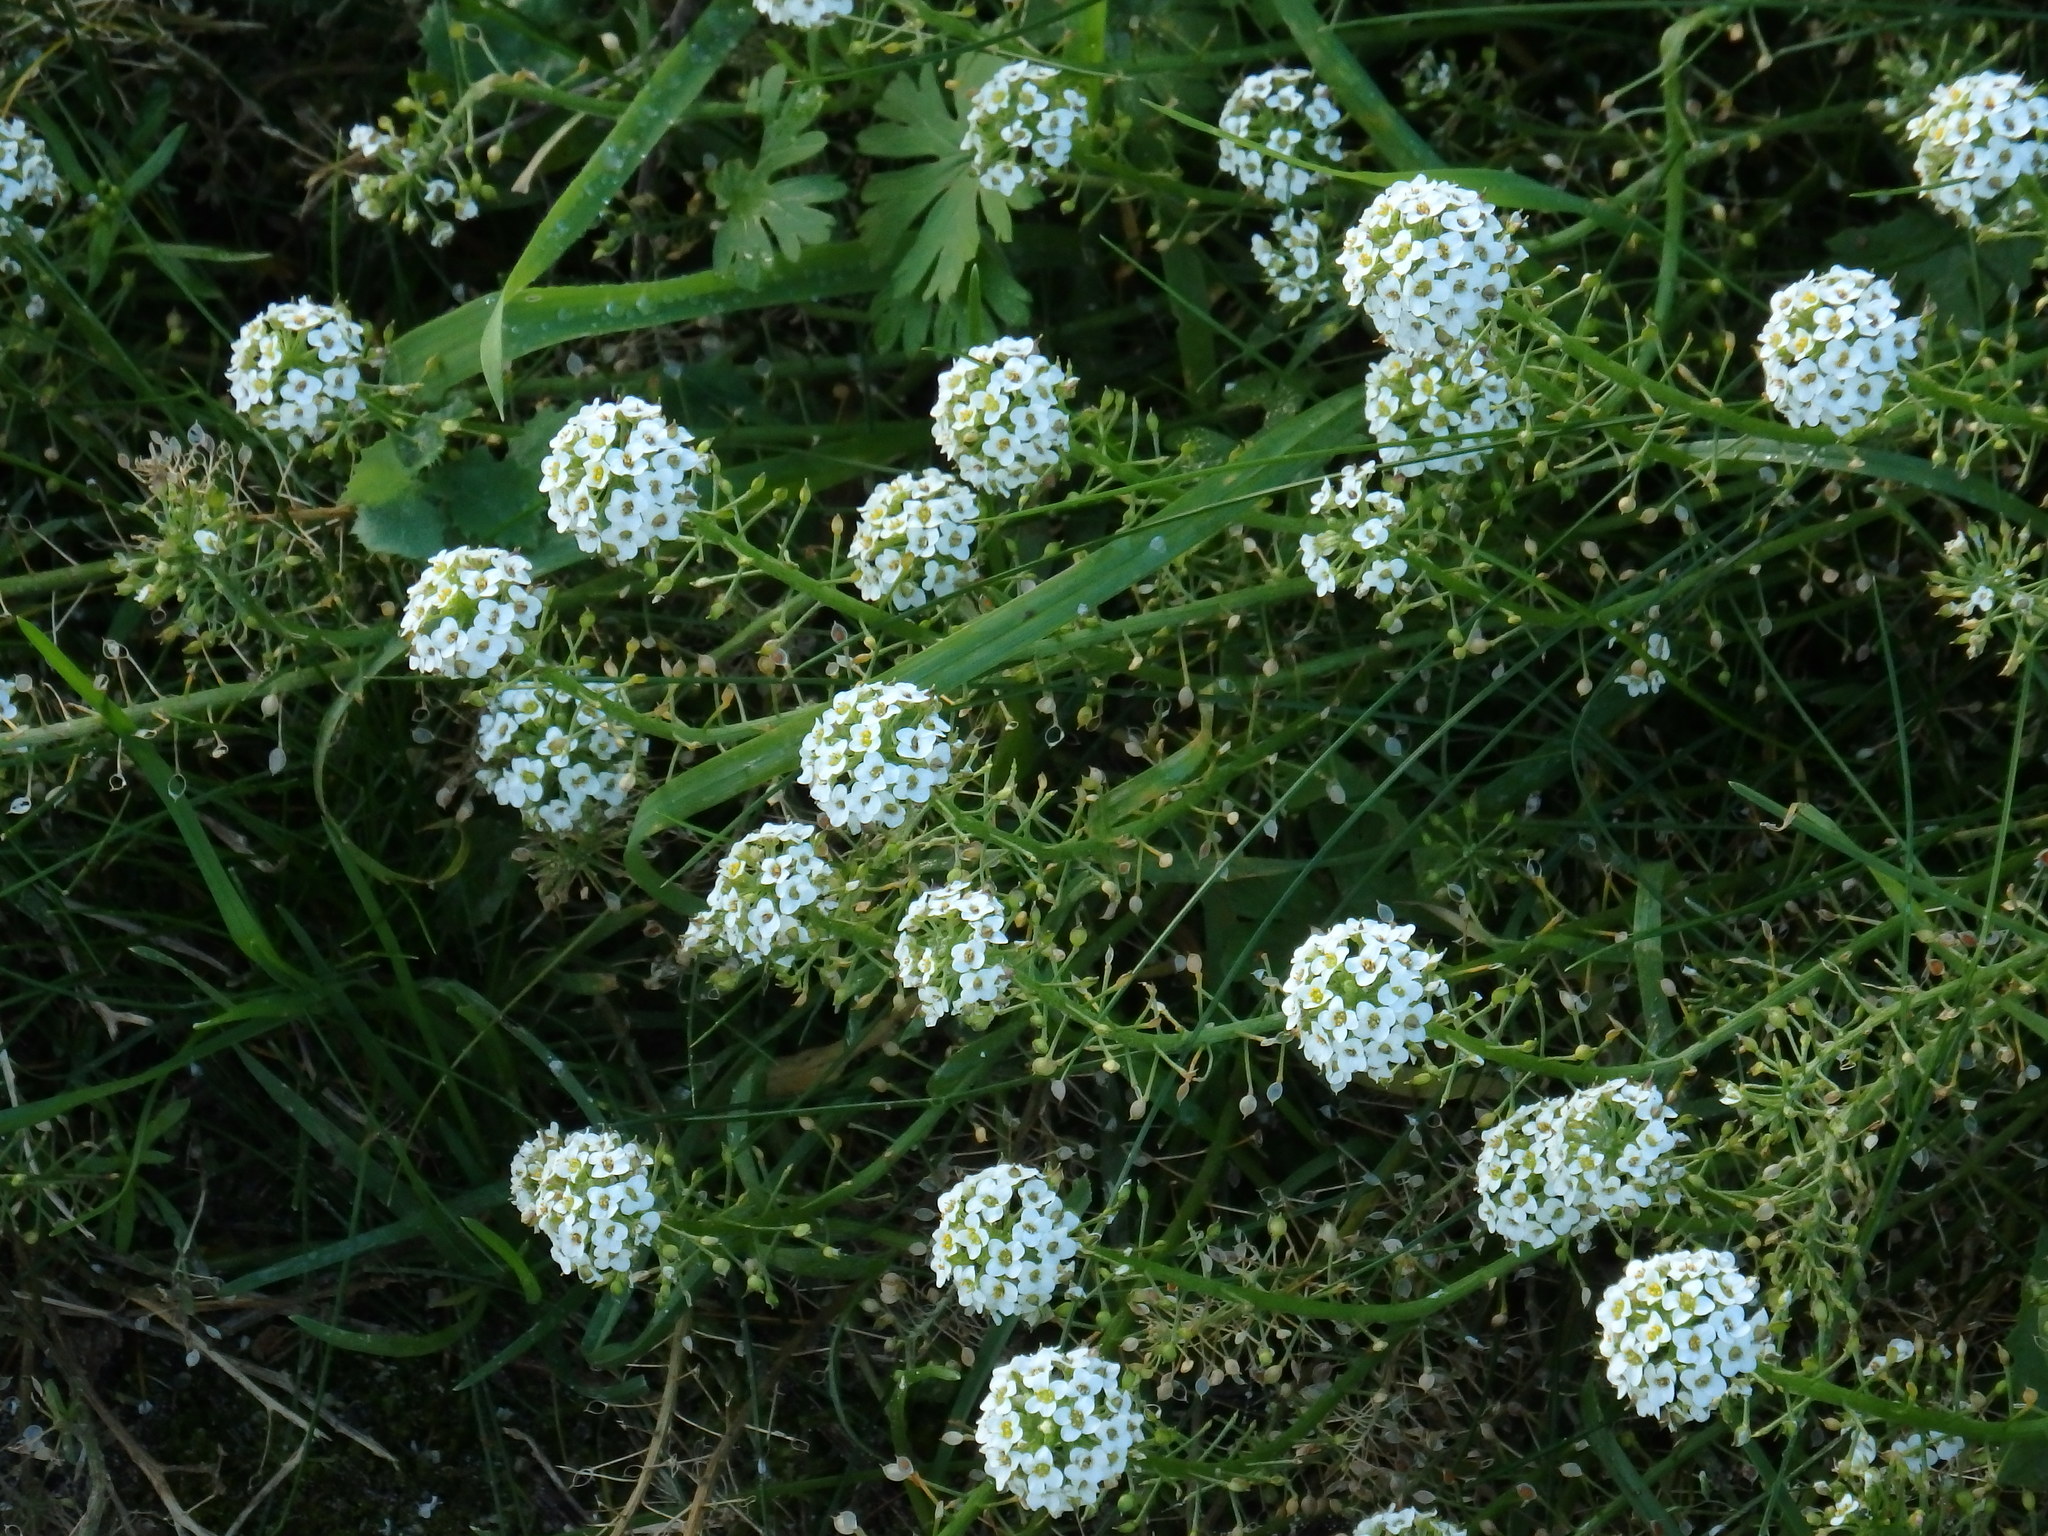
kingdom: Plantae
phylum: Tracheophyta
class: Magnoliopsida
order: Brassicales
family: Brassicaceae
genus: Lobularia
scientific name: Lobularia maritima
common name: Sweet alison
